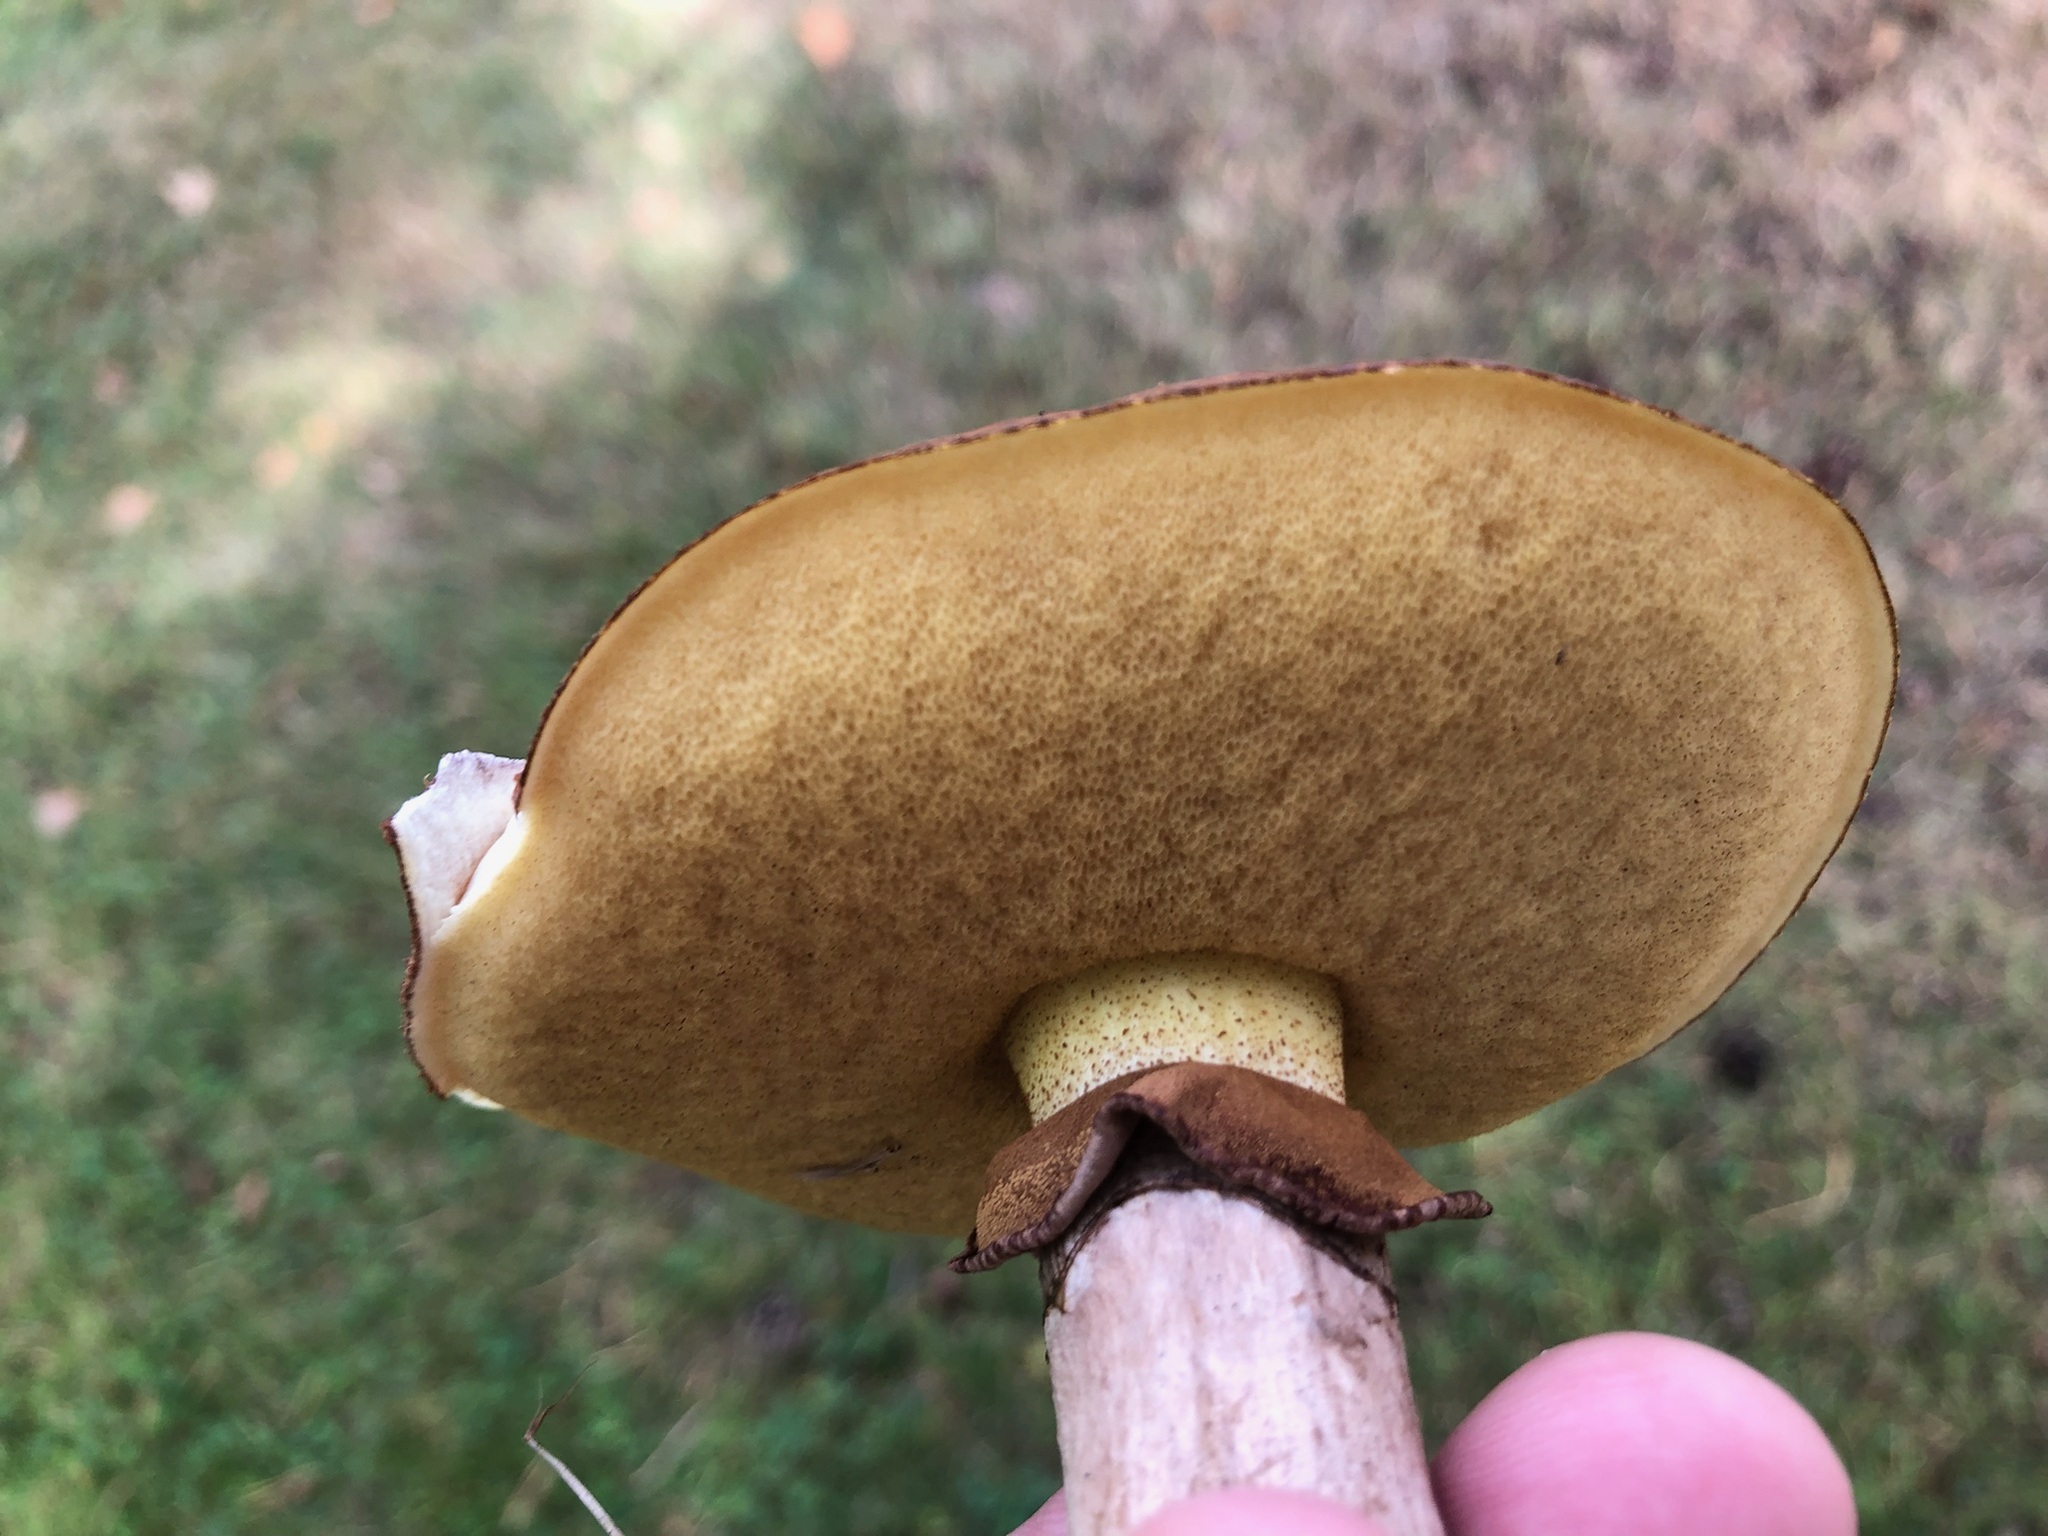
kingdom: Fungi
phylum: Basidiomycota
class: Agaricomycetes
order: Boletales
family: Suillaceae
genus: Suillus
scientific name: Suillus luteus
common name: Slippery jack
